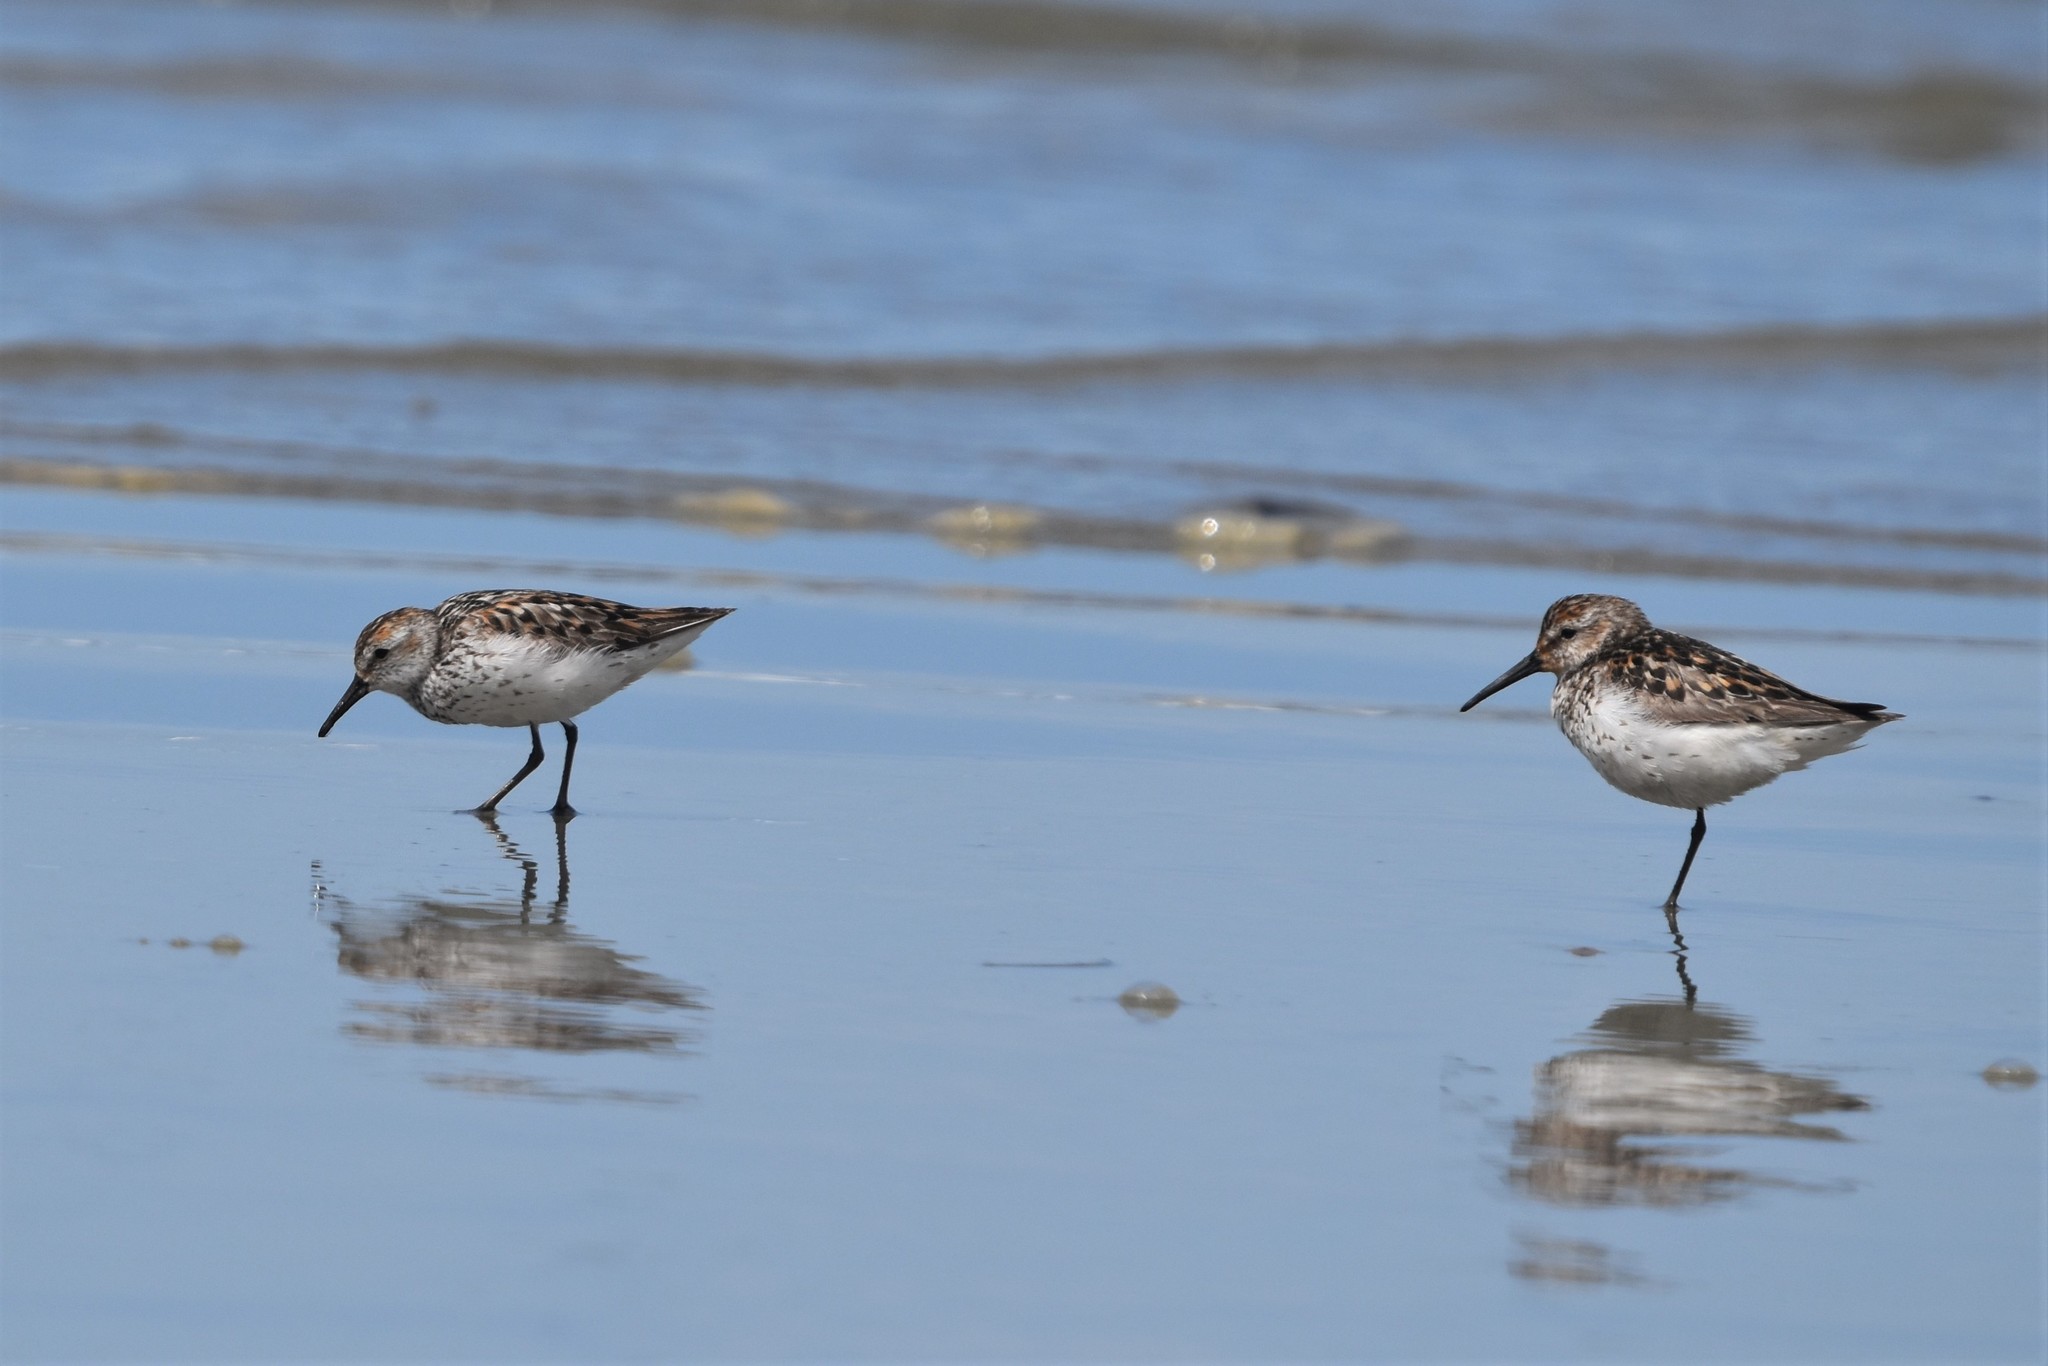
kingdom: Animalia
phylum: Chordata
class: Aves
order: Charadriiformes
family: Scolopacidae
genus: Calidris
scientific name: Calidris mauri
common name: Western sandpiper
